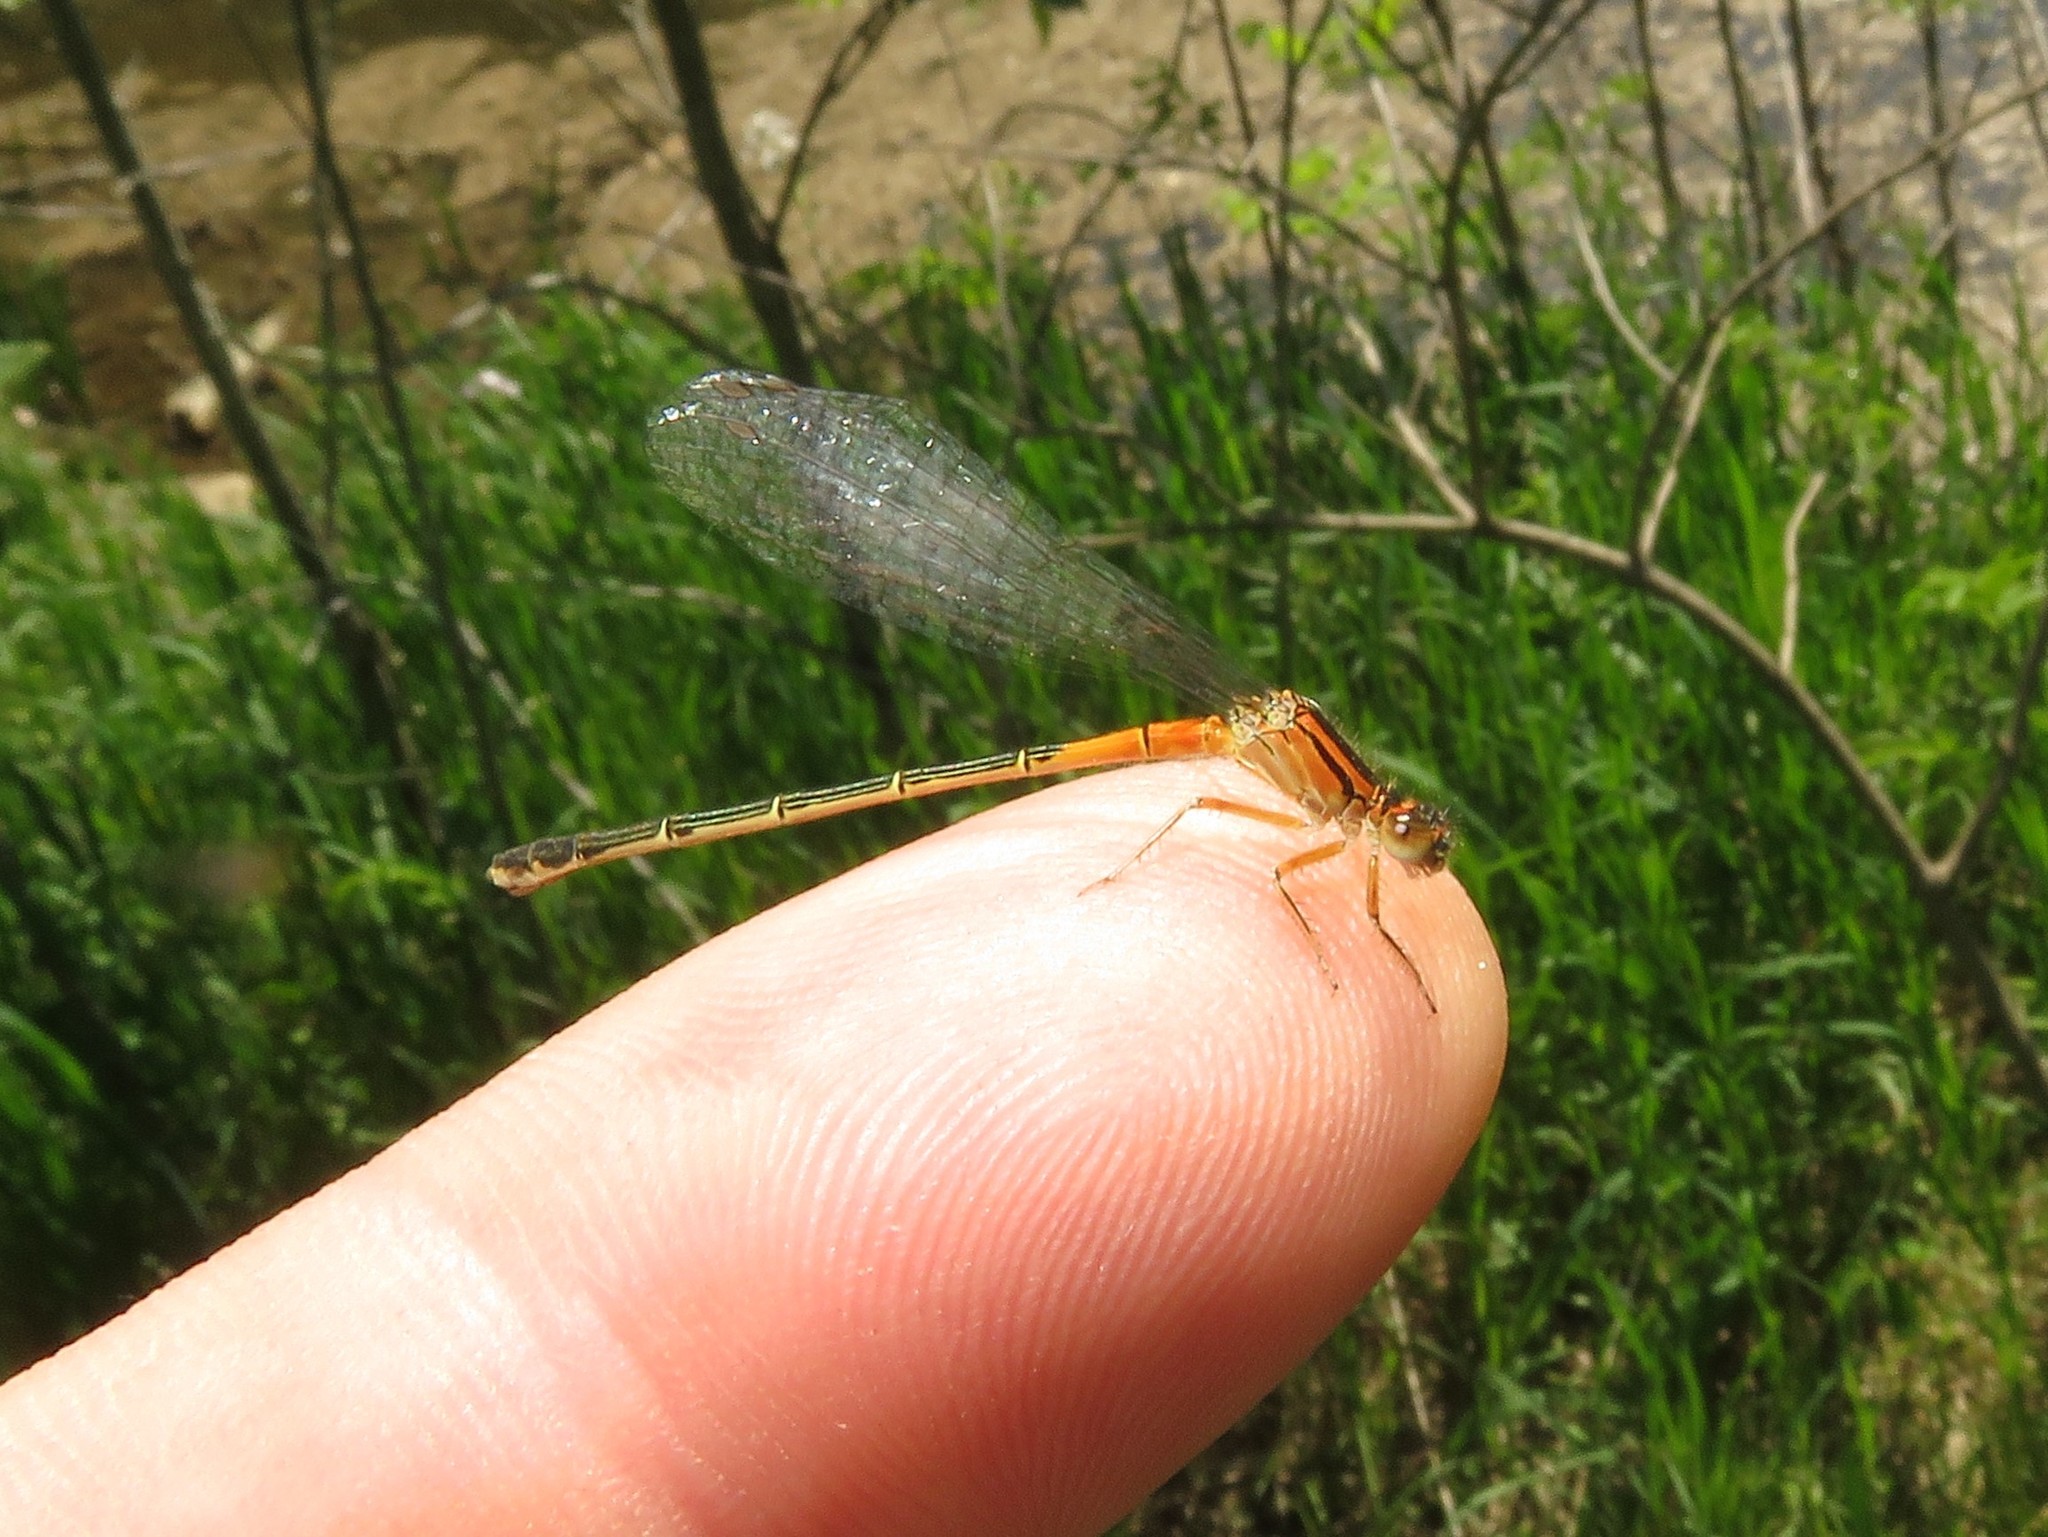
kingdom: Animalia
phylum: Arthropoda
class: Insecta
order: Odonata
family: Coenagrionidae
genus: Ischnura
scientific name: Ischnura verticalis
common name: Eastern forktail
